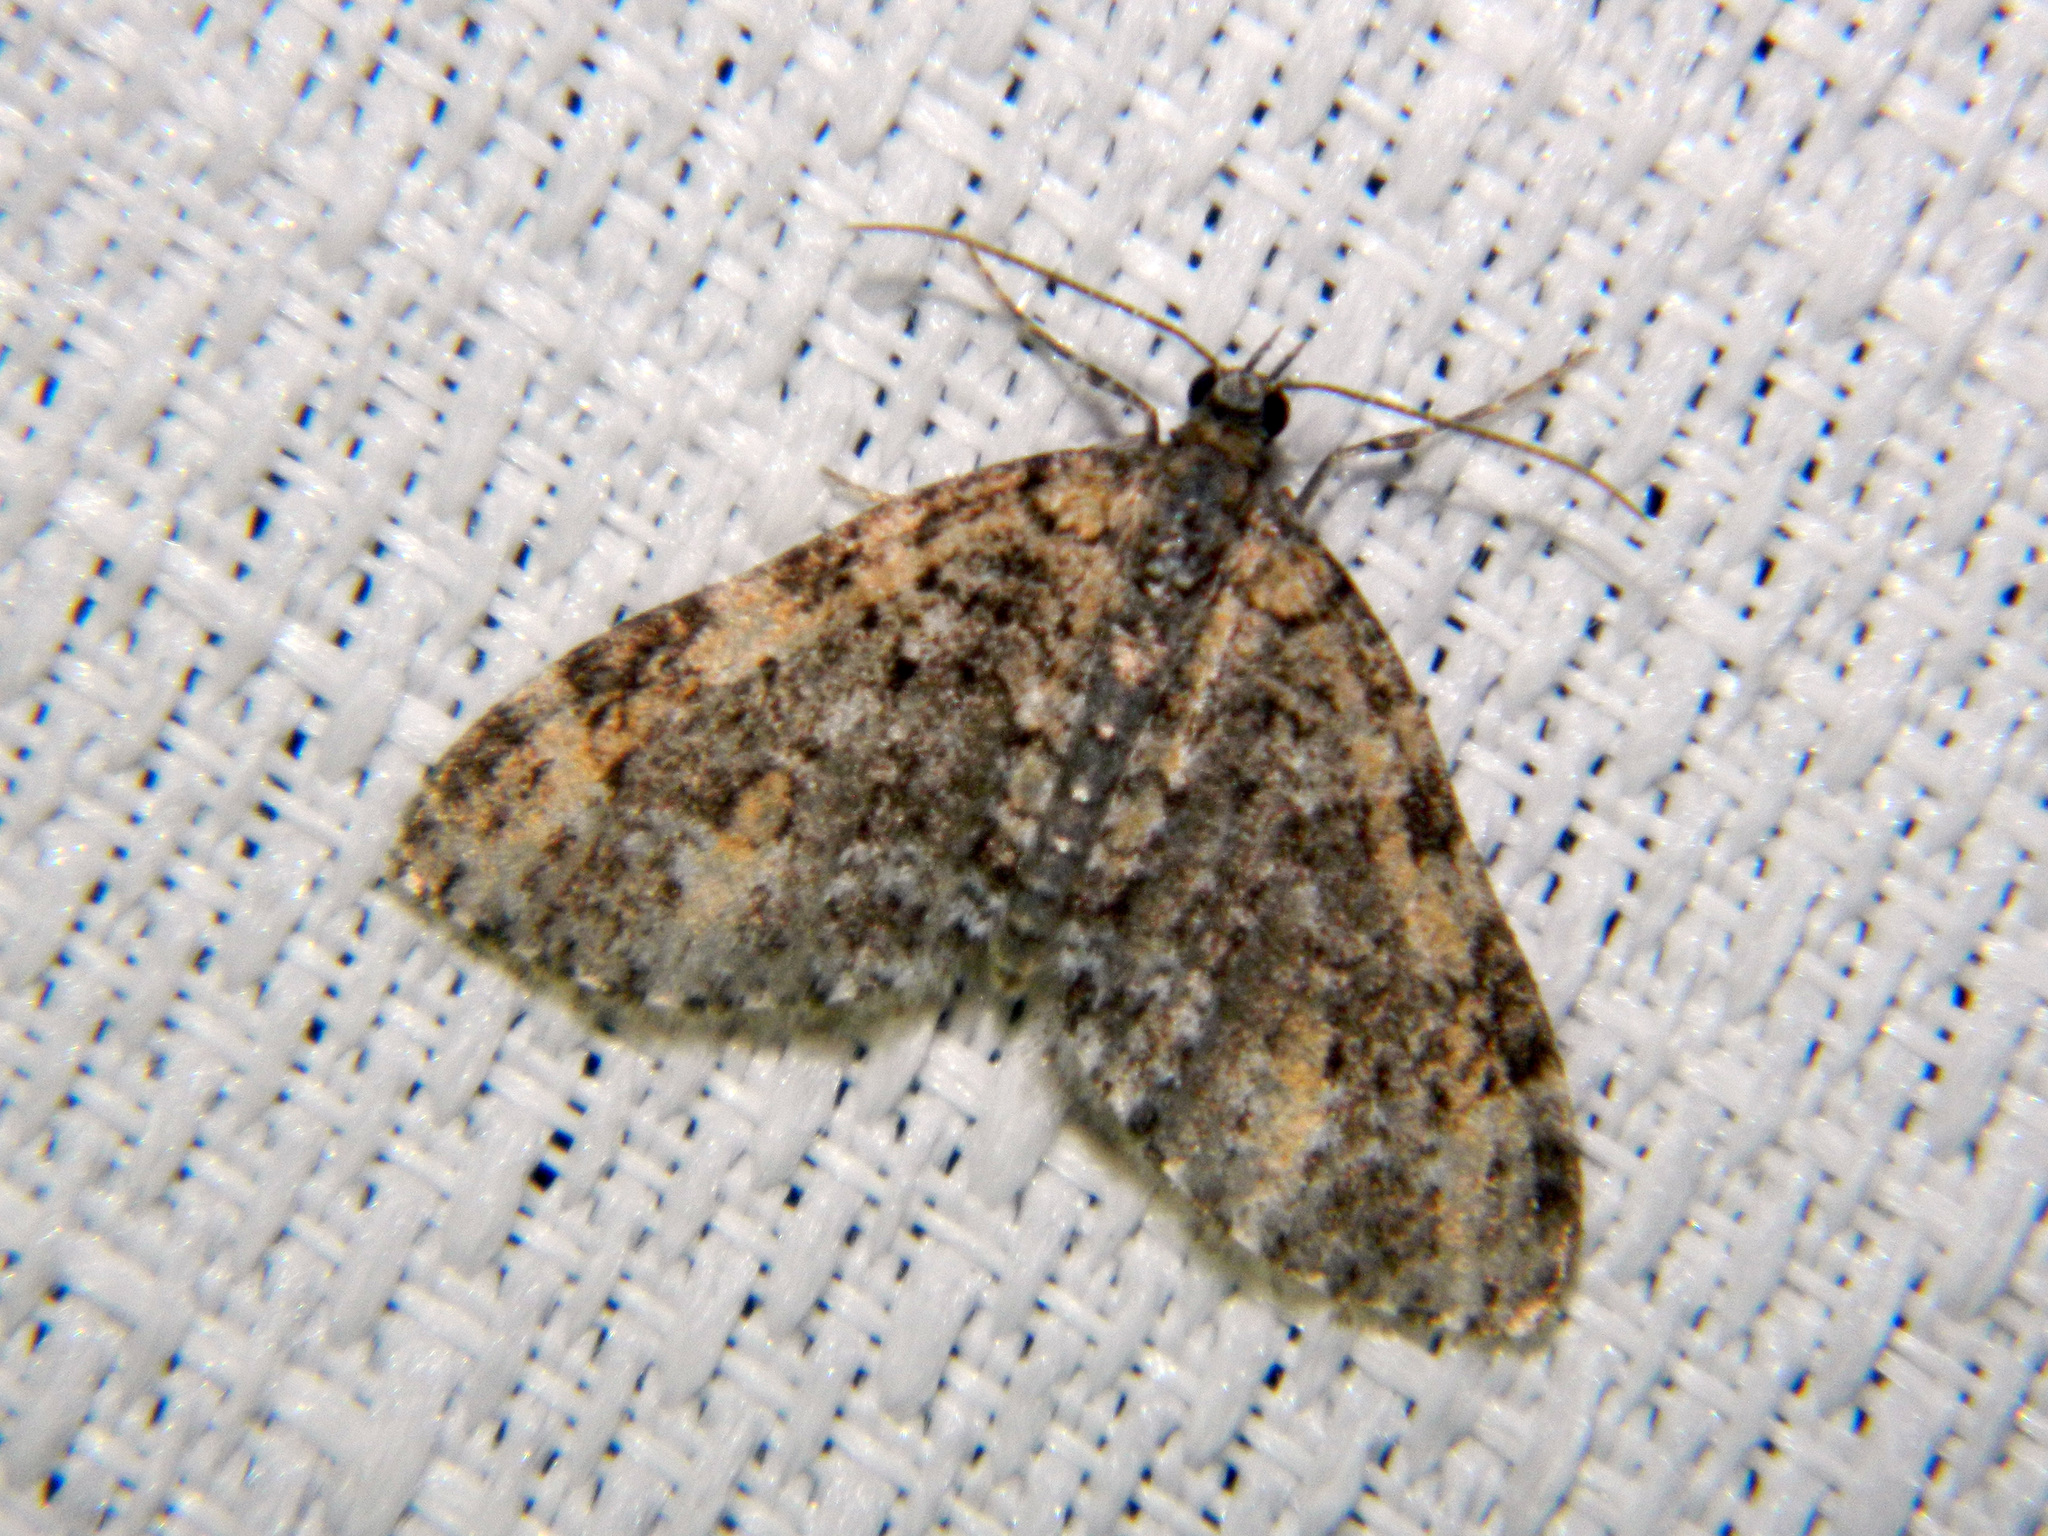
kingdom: Animalia
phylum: Arthropoda
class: Insecta
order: Lepidoptera
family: Geometridae
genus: Acasis
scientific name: Acasis viridata
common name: Olive-and-black carpet moth
